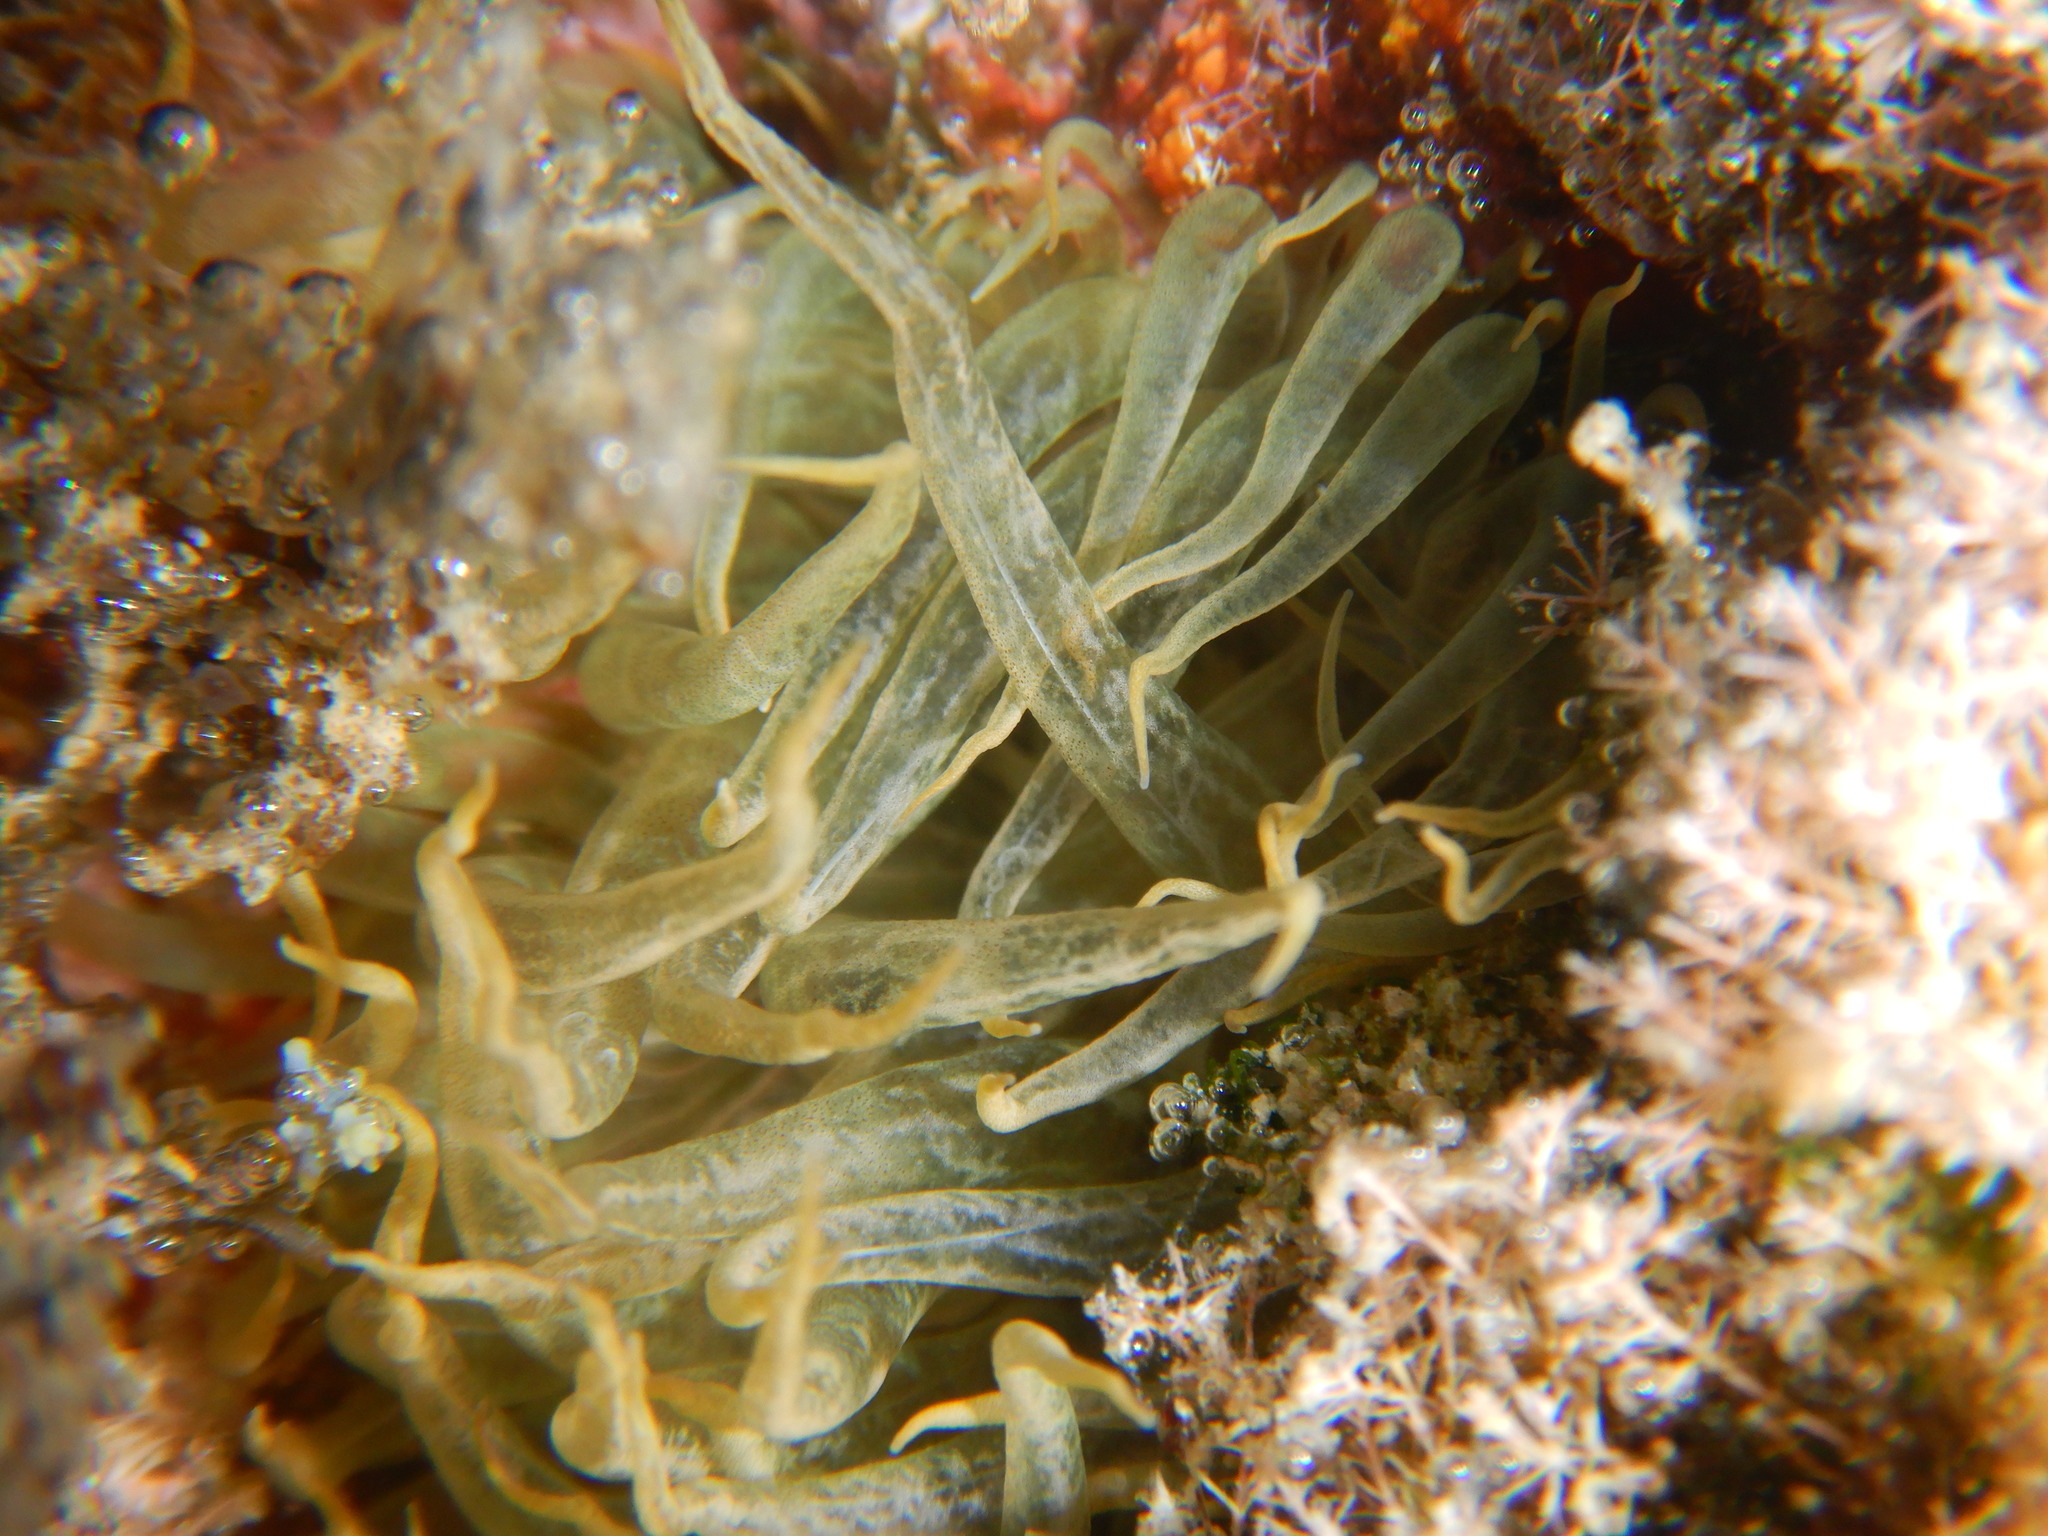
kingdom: Animalia
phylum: Cnidaria
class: Anthozoa
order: Actiniaria
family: Aiptasiidae
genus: Aiptasia
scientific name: Aiptasia mutabilis
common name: Trumpet anemone
